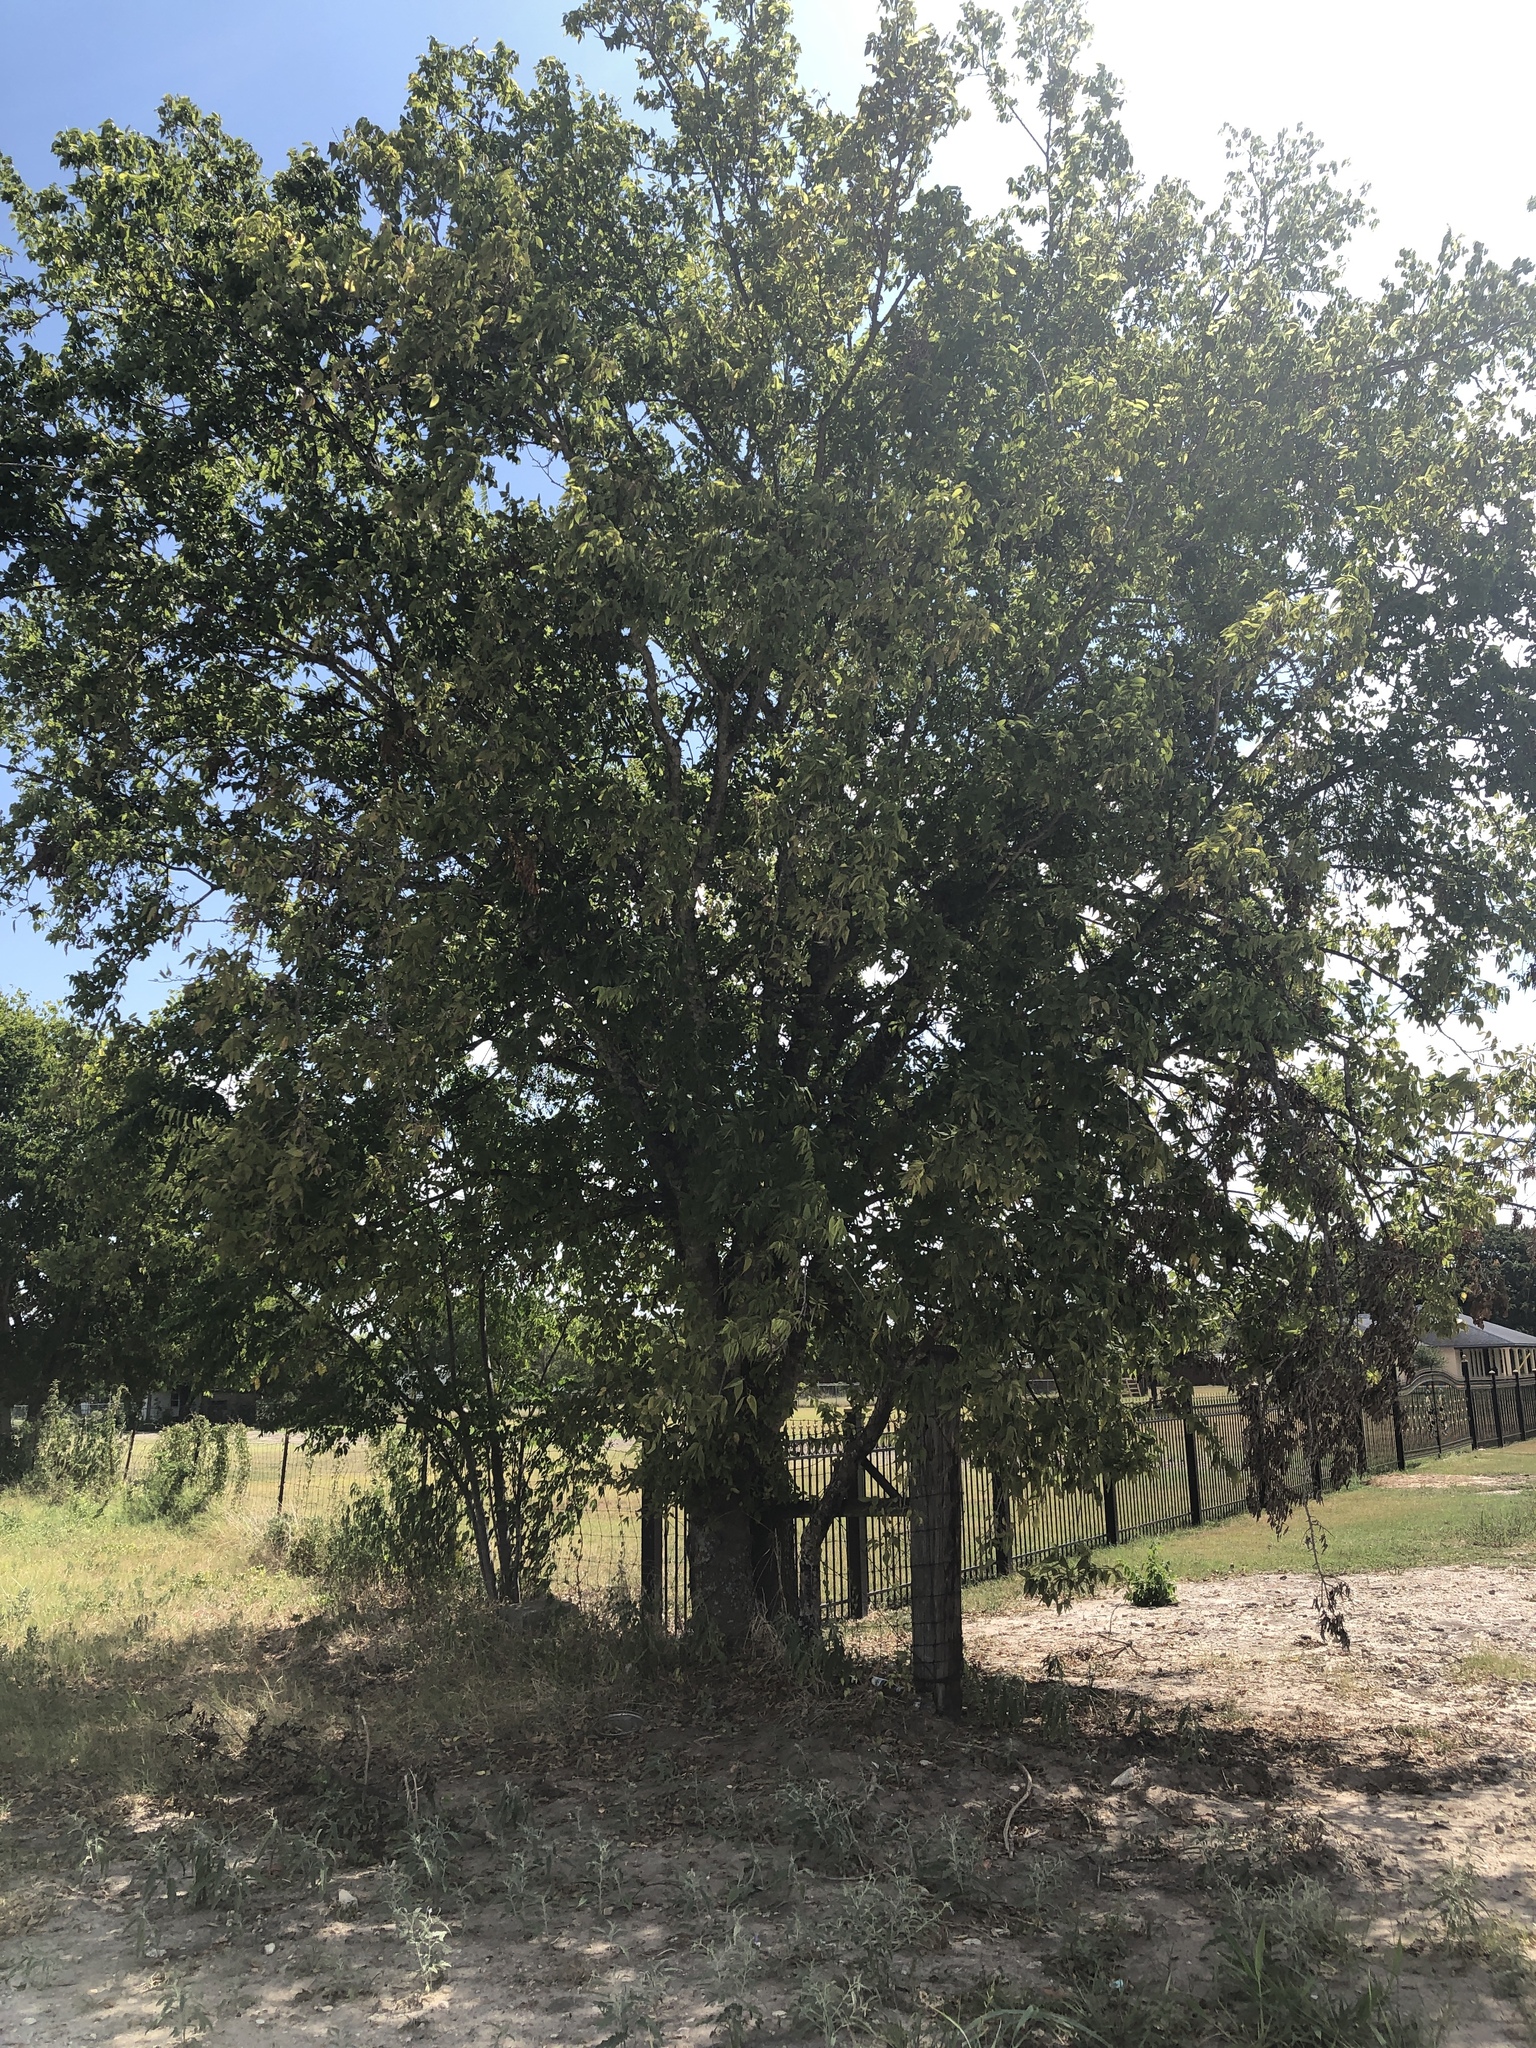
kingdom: Plantae
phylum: Tracheophyta
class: Magnoliopsida
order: Rosales
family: Cannabaceae
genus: Celtis
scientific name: Celtis laevigata
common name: Sugarberry
